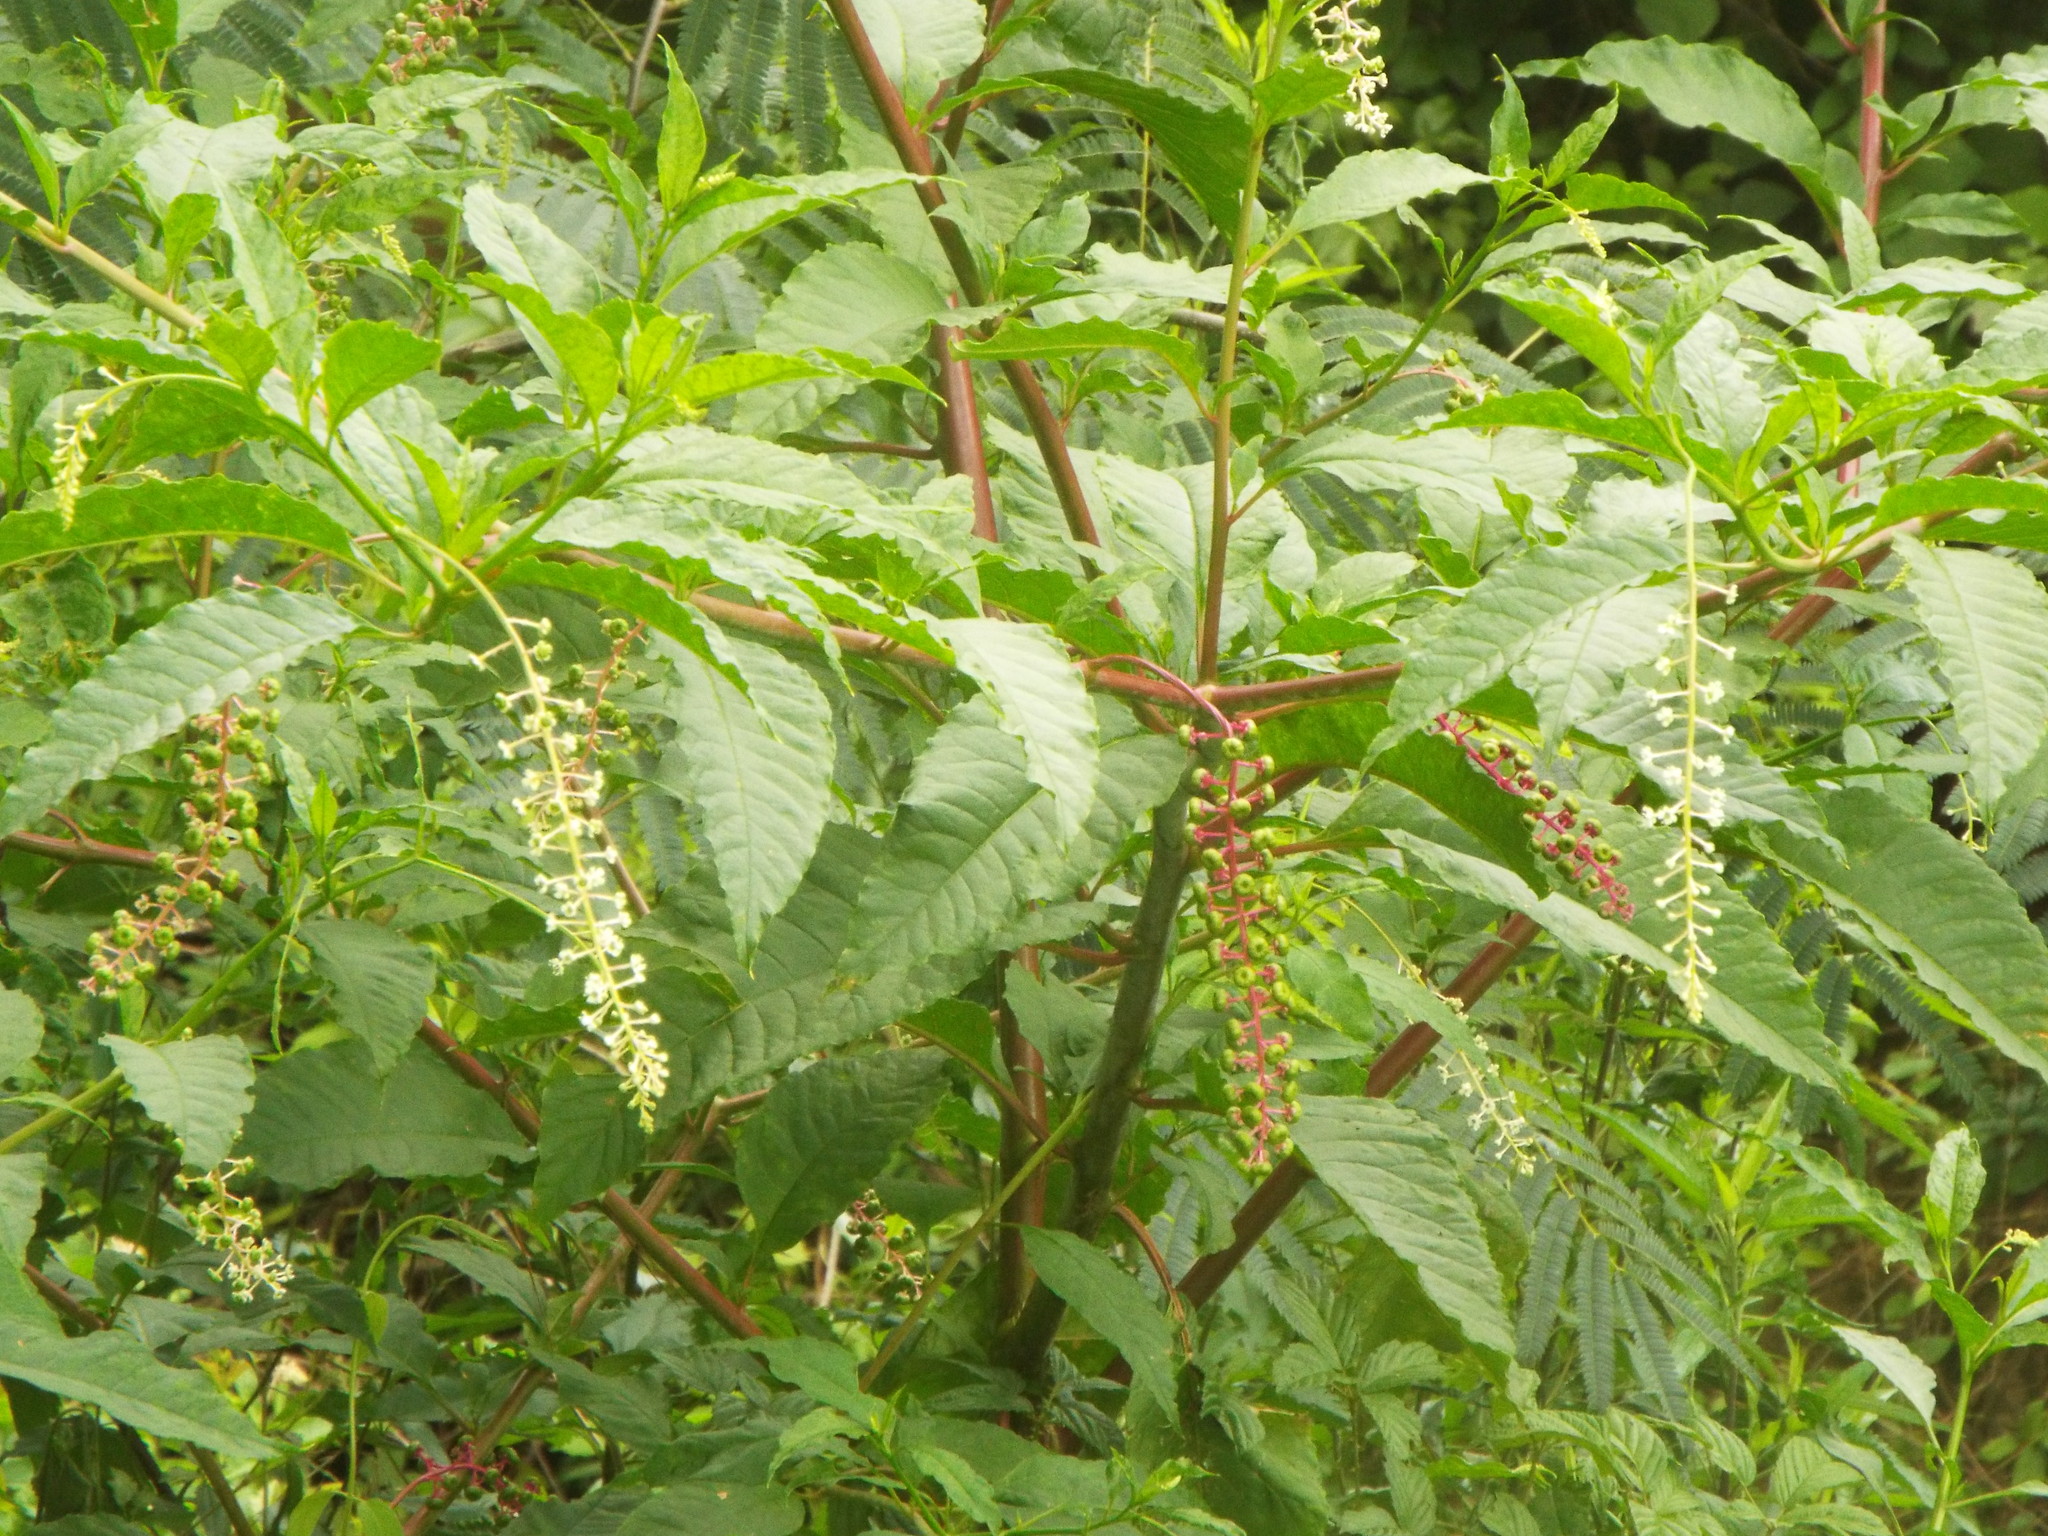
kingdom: Plantae
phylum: Tracheophyta
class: Magnoliopsida
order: Caryophyllales
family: Phytolaccaceae
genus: Phytolacca
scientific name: Phytolacca americana
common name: American pokeweed
